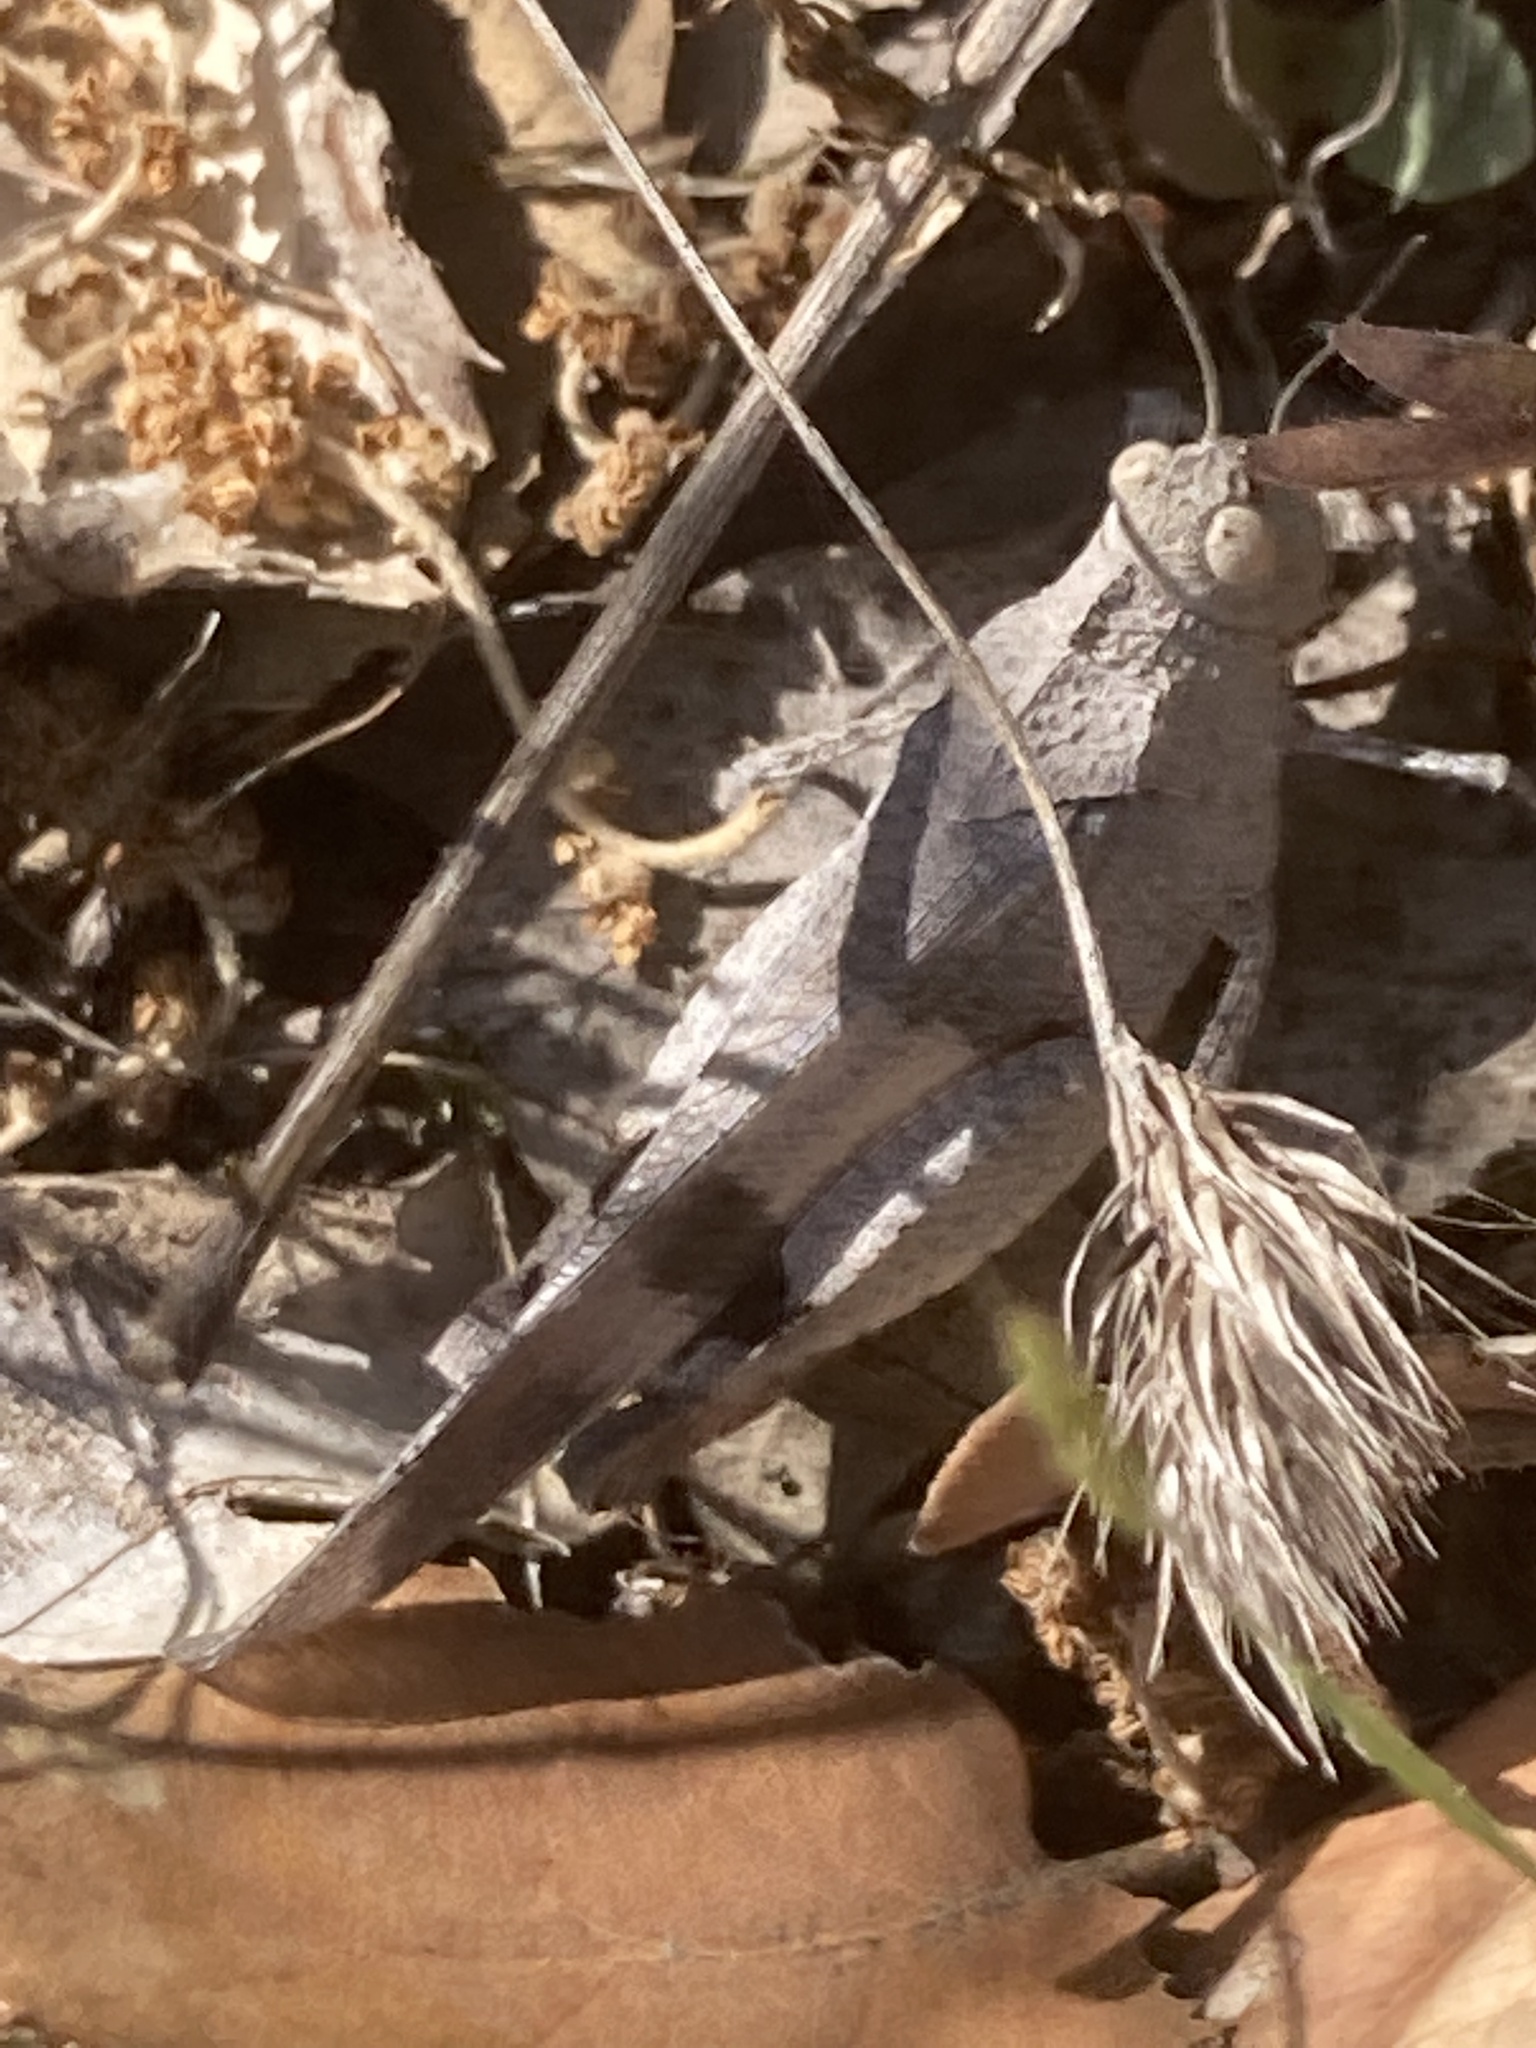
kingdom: Animalia
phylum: Arthropoda
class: Insecta
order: Orthoptera
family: Acrididae
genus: Oedipoda
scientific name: Oedipoda caerulescens
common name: Blue-winged grasshopper
